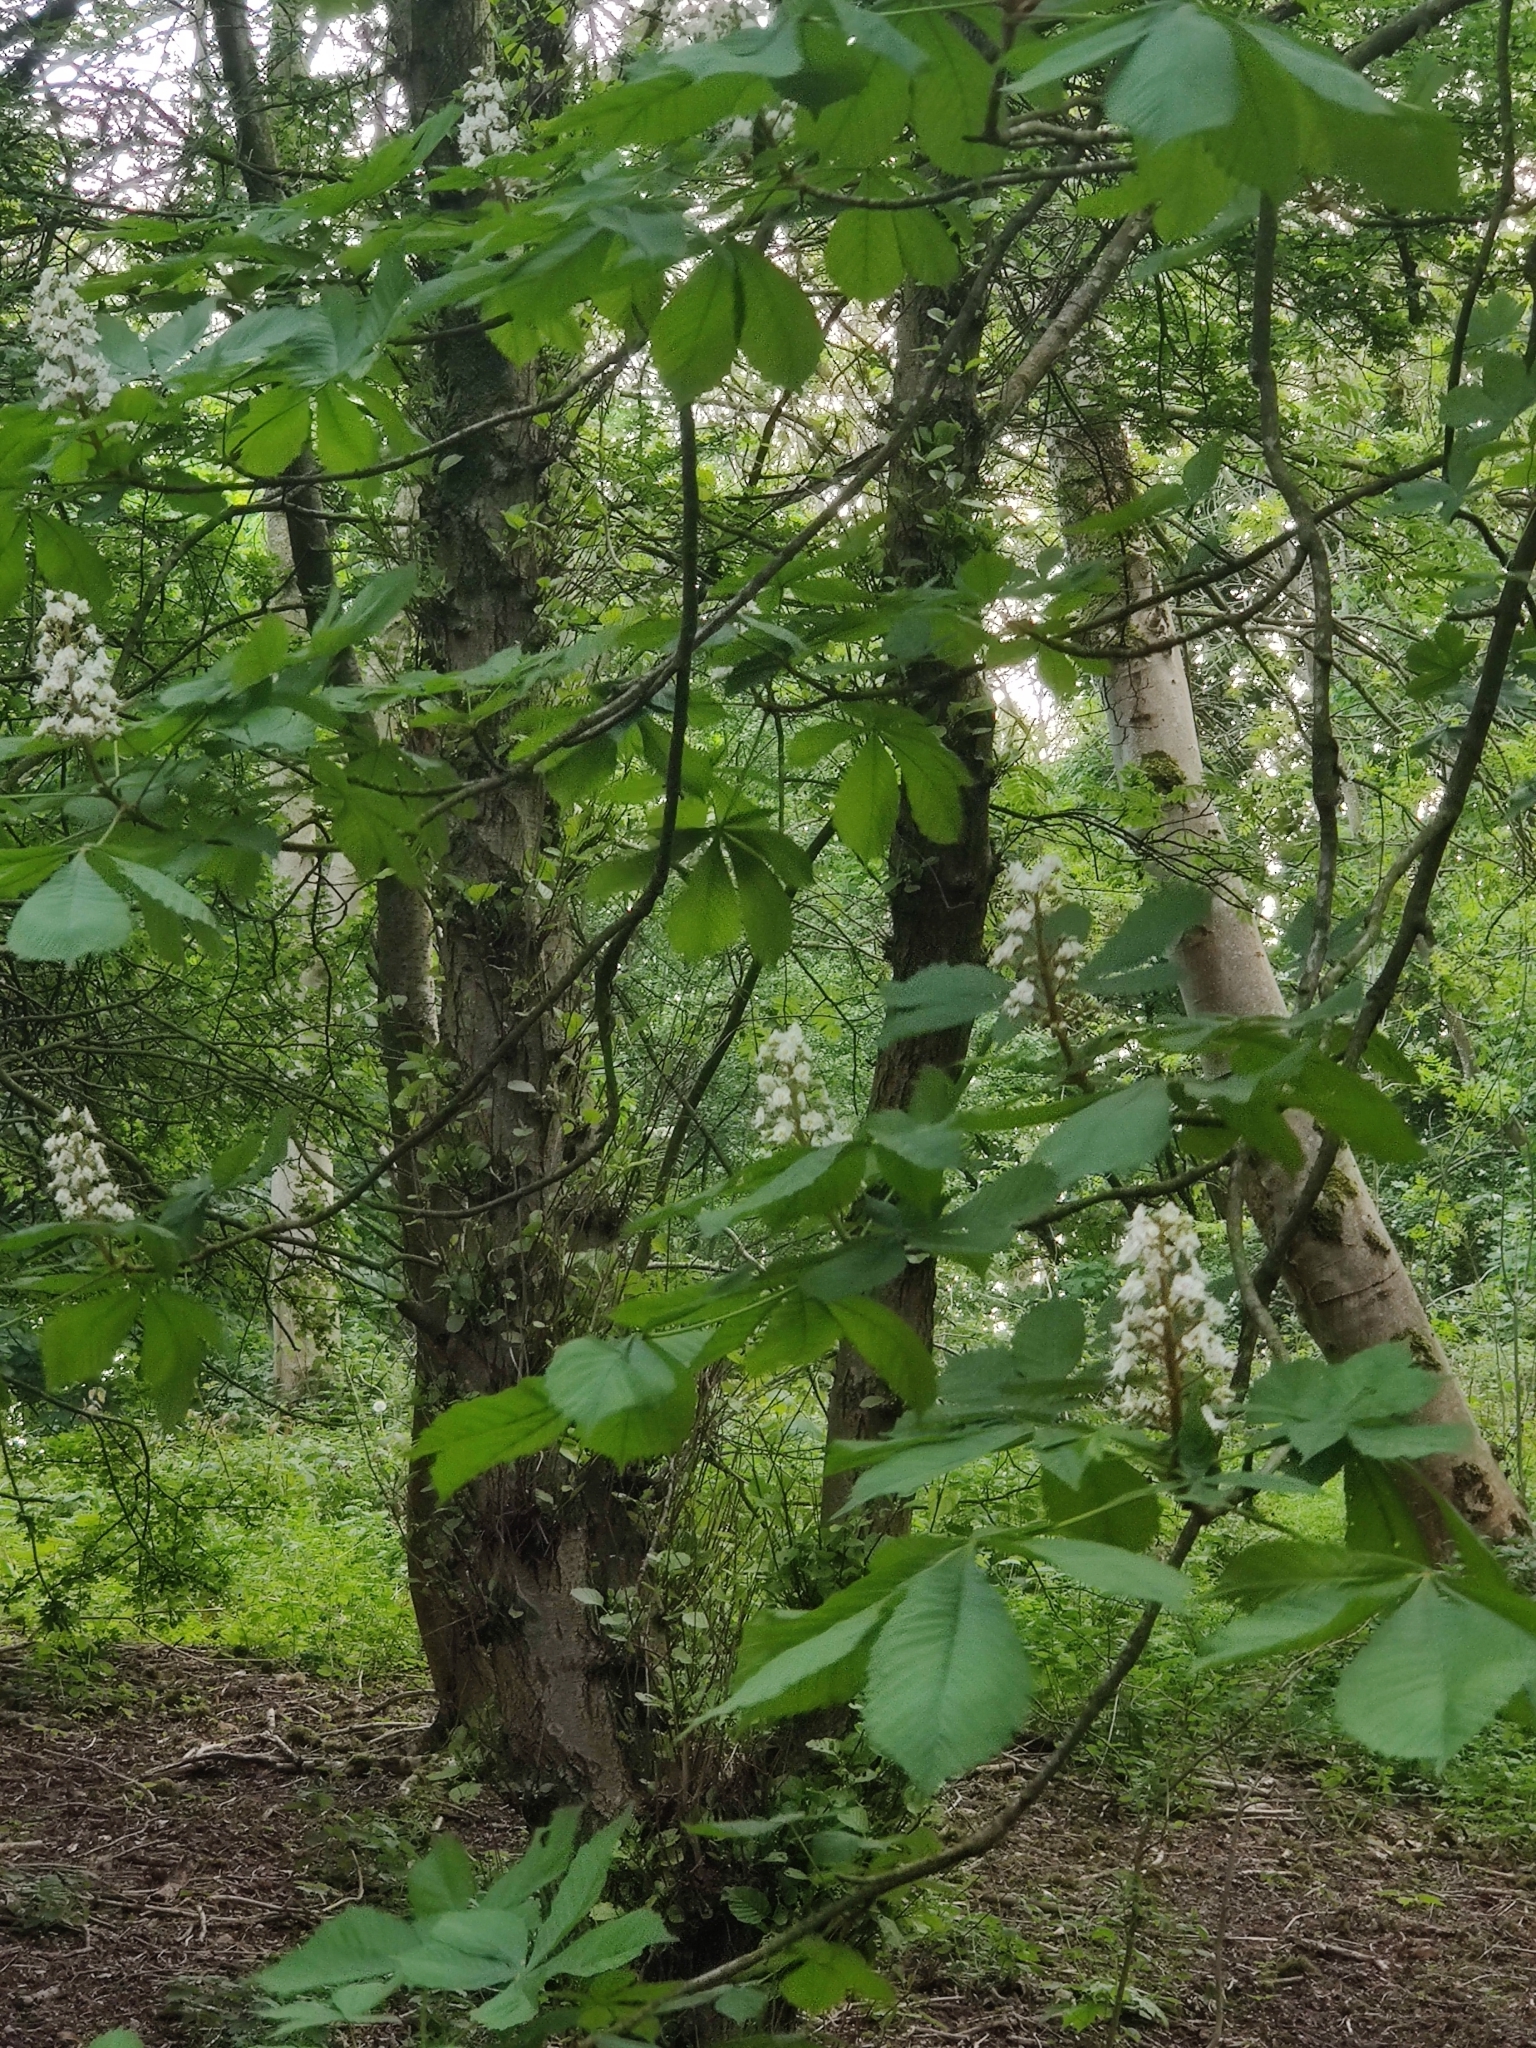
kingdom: Plantae
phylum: Tracheophyta
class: Magnoliopsida
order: Sapindales
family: Sapindaceae
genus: Aesculus
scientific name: Aesculus hippocastanum
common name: Horse-chestnut
